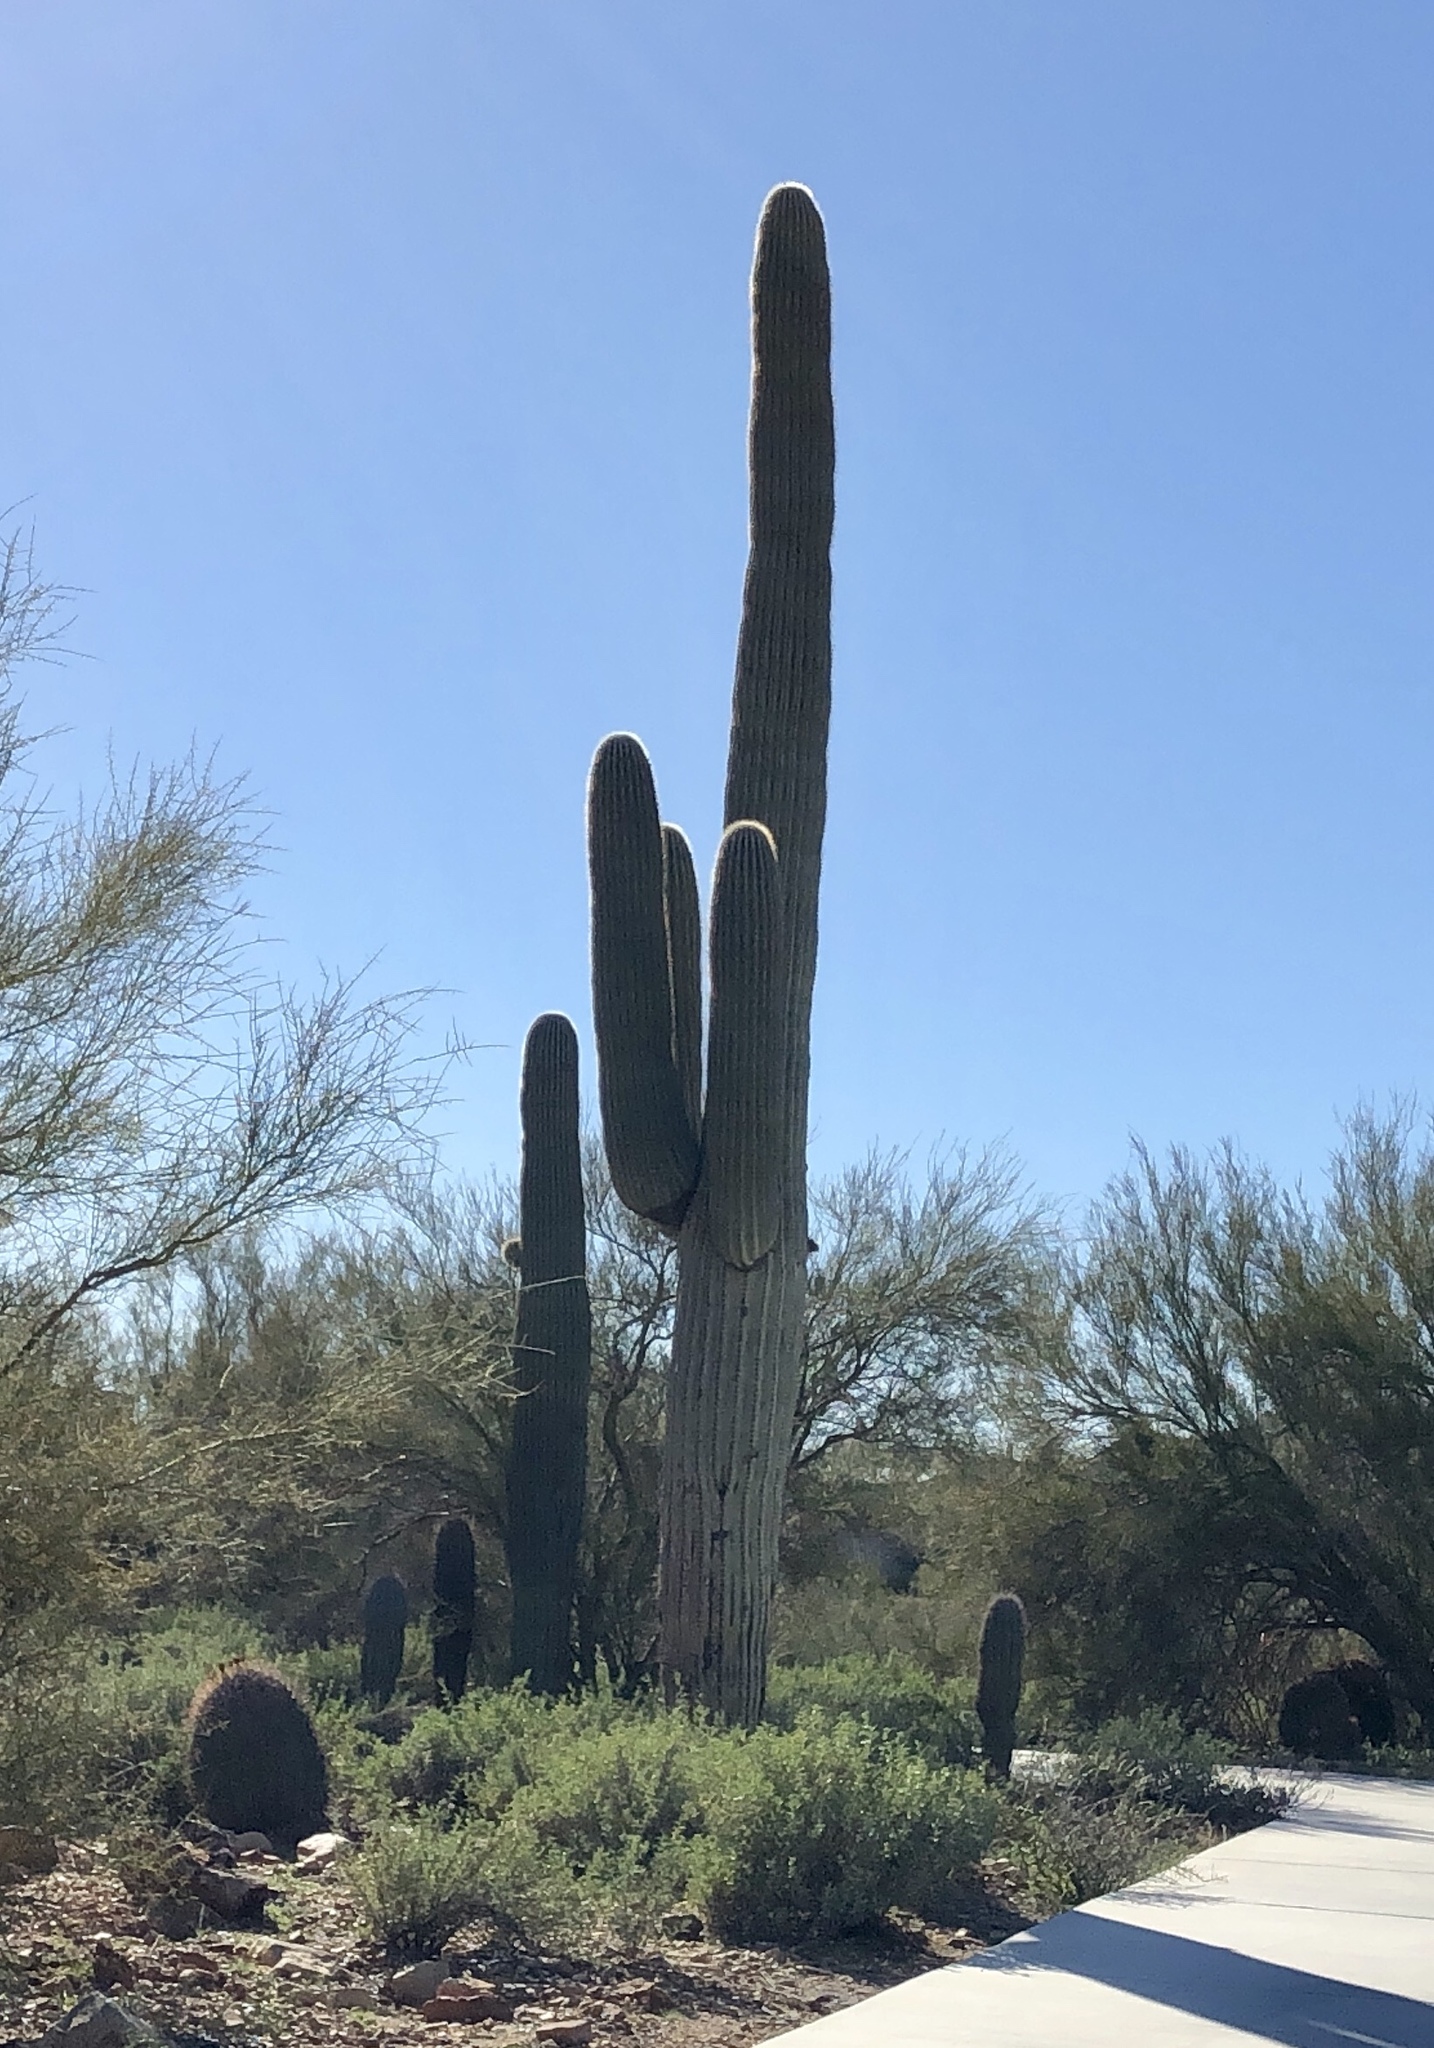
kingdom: Plantae
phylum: Tracheophyta
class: Magnoliopsida
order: Caryophyllales
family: Cactaceae
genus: Carnegiea
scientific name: Carnegiea gigantea
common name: Saguaro
